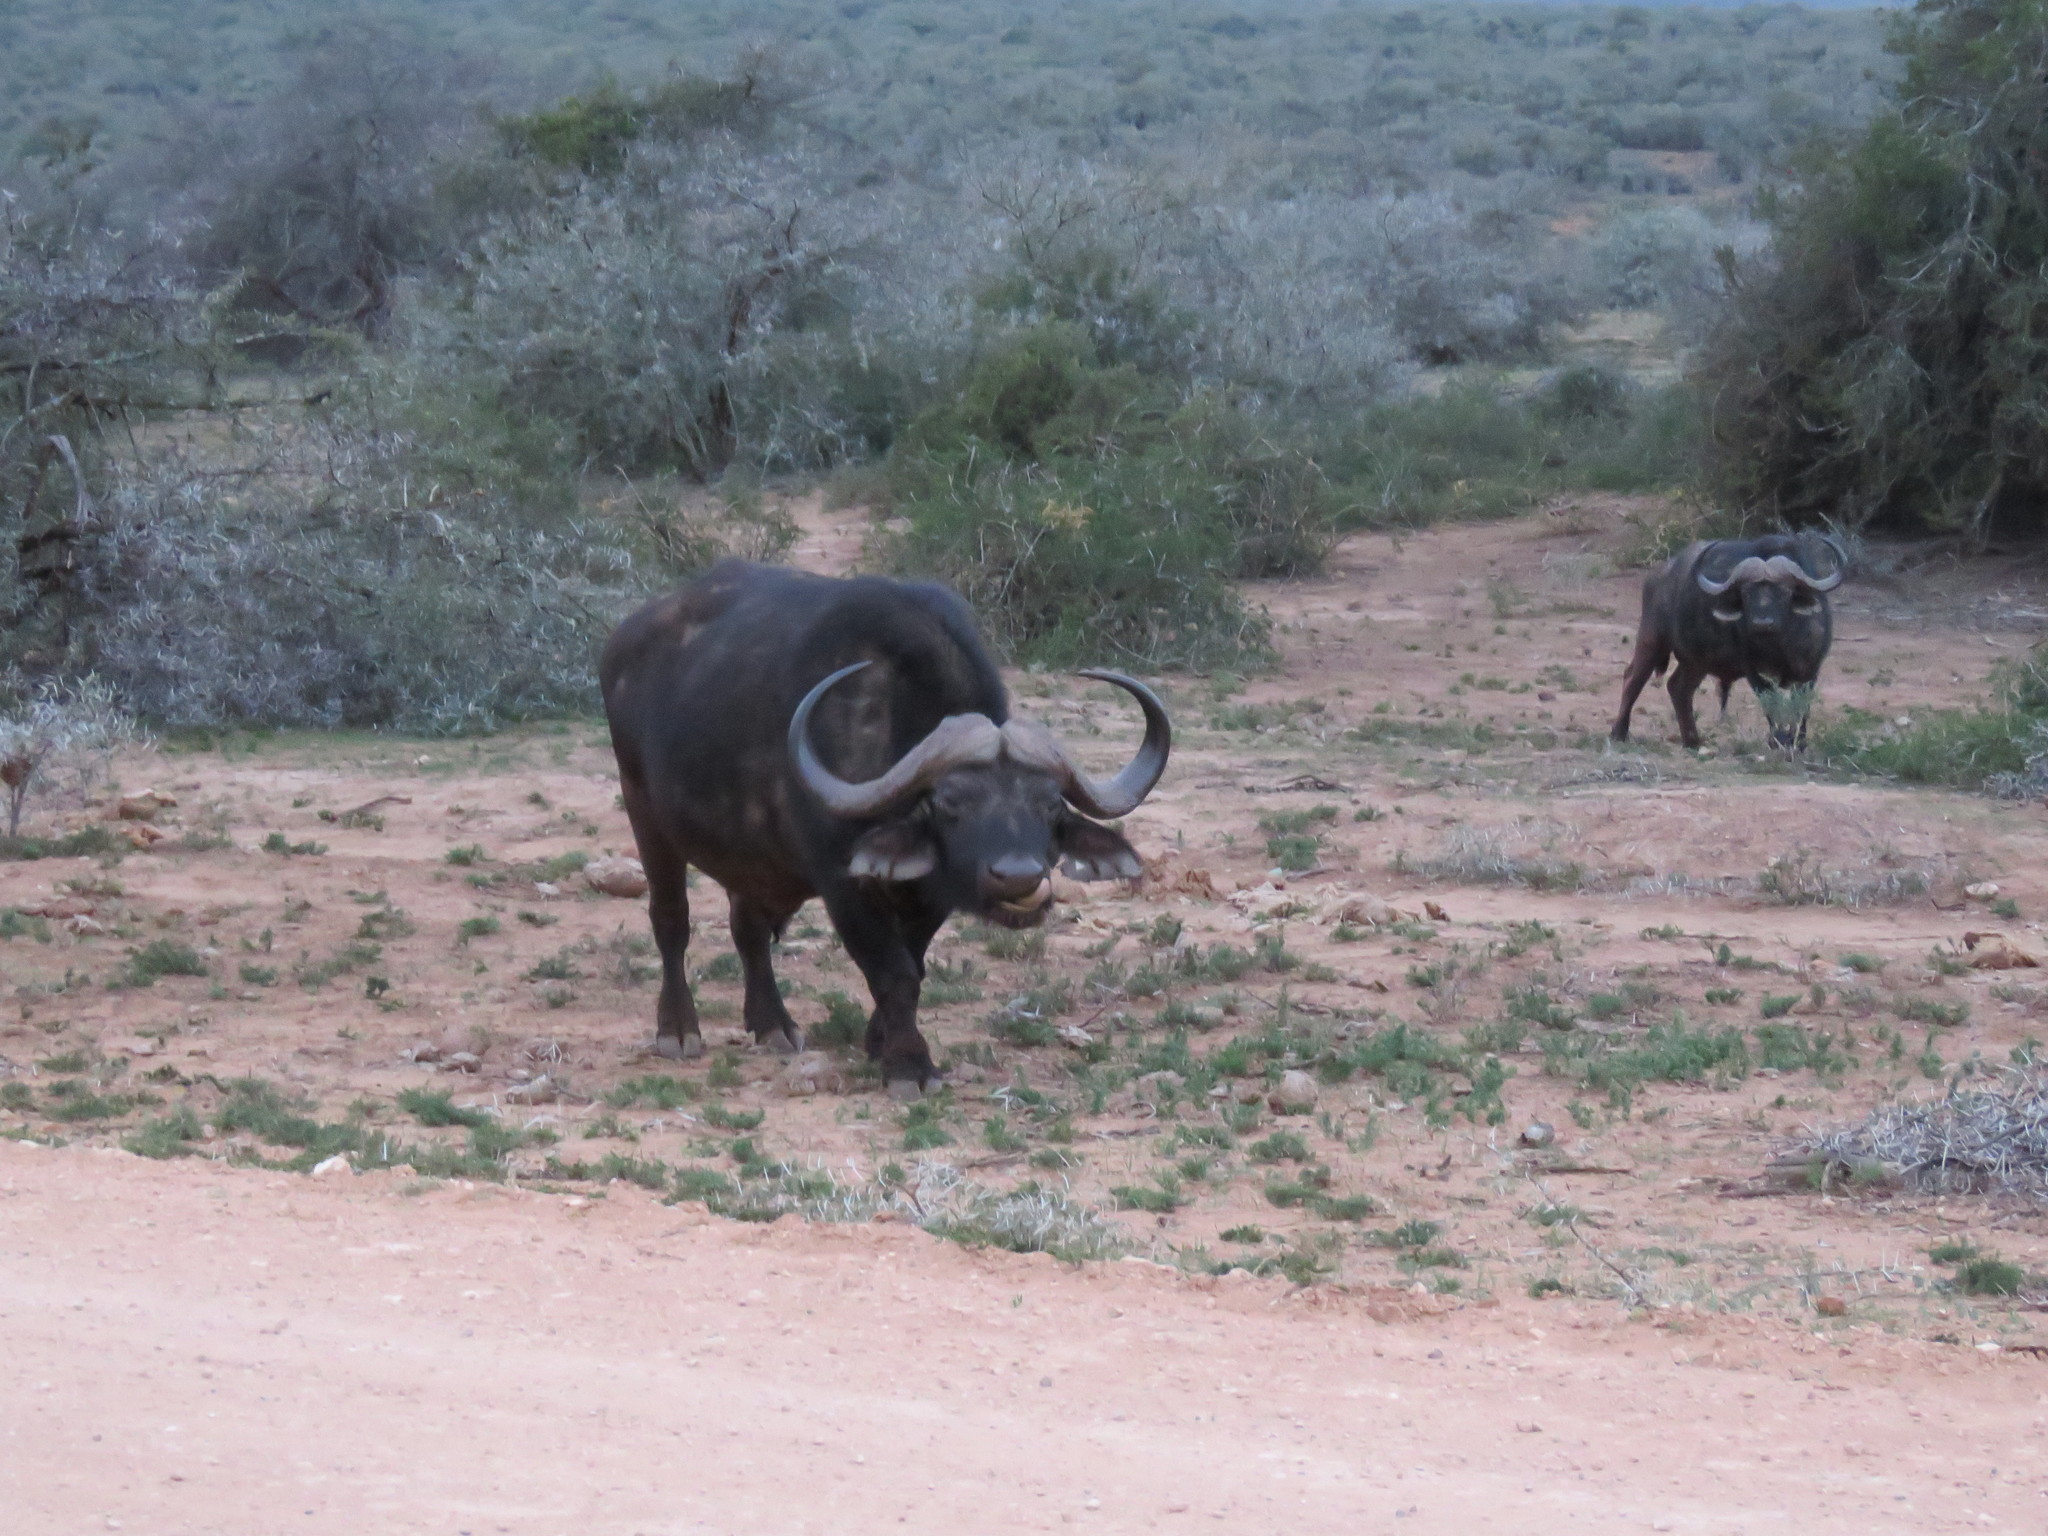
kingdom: Animalia
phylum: Chordata
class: Mammalia
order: Artiodactyla
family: Bovidae
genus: Syncerus
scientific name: Syncerus caffer
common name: African buffalo
